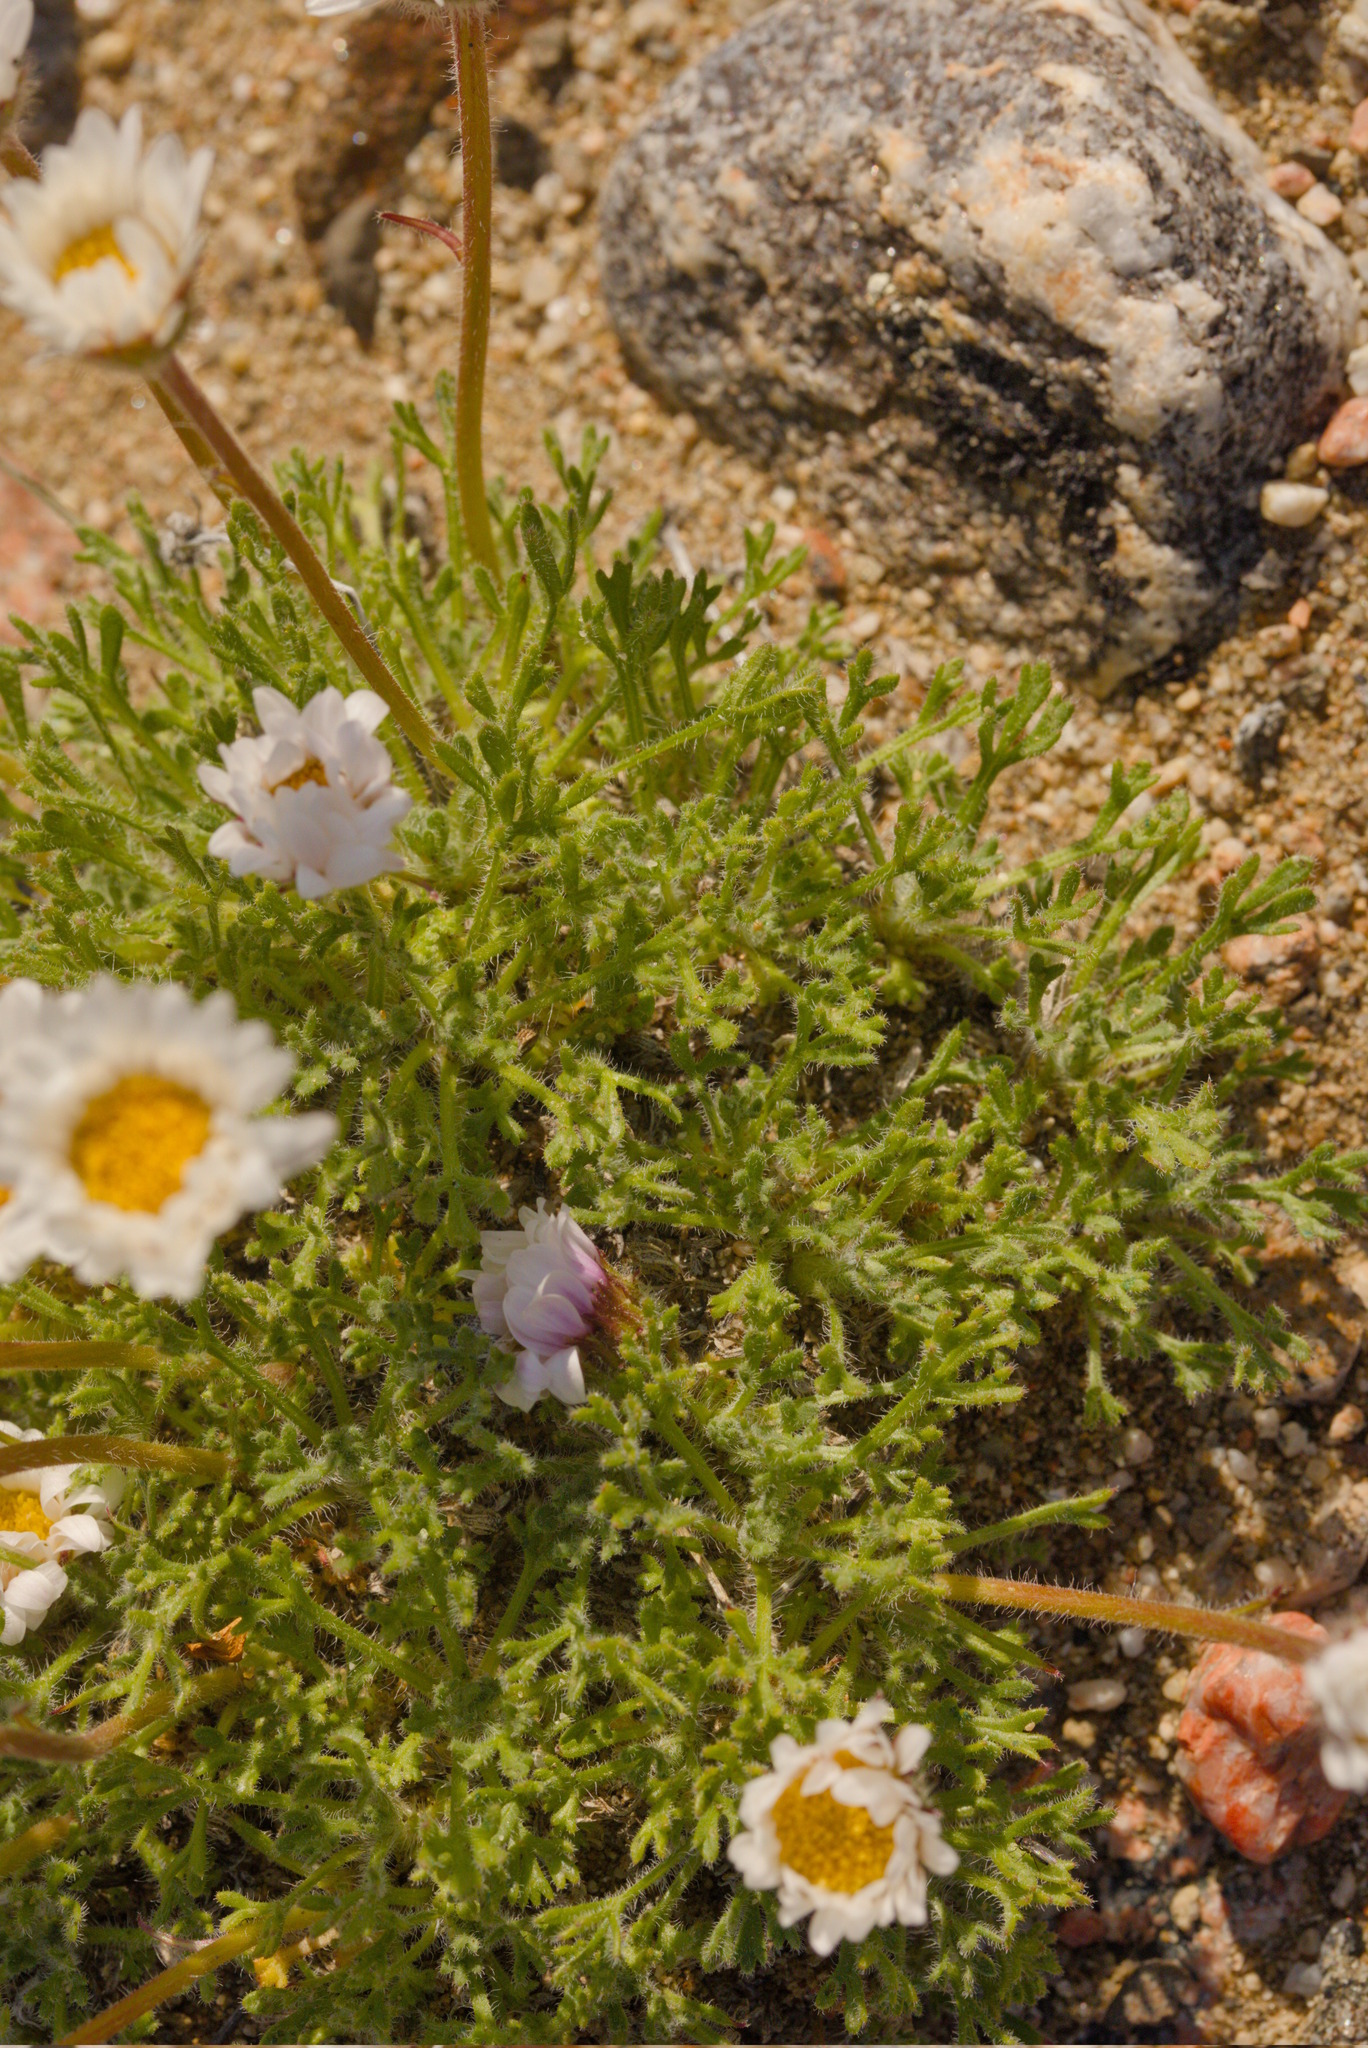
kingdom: Plantae
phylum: Tracheophyta
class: Magnoliopsida
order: Asterales
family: Asteraceae
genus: Erigeron
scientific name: Erigeron compositus
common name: Dwarf mountain fleabane
